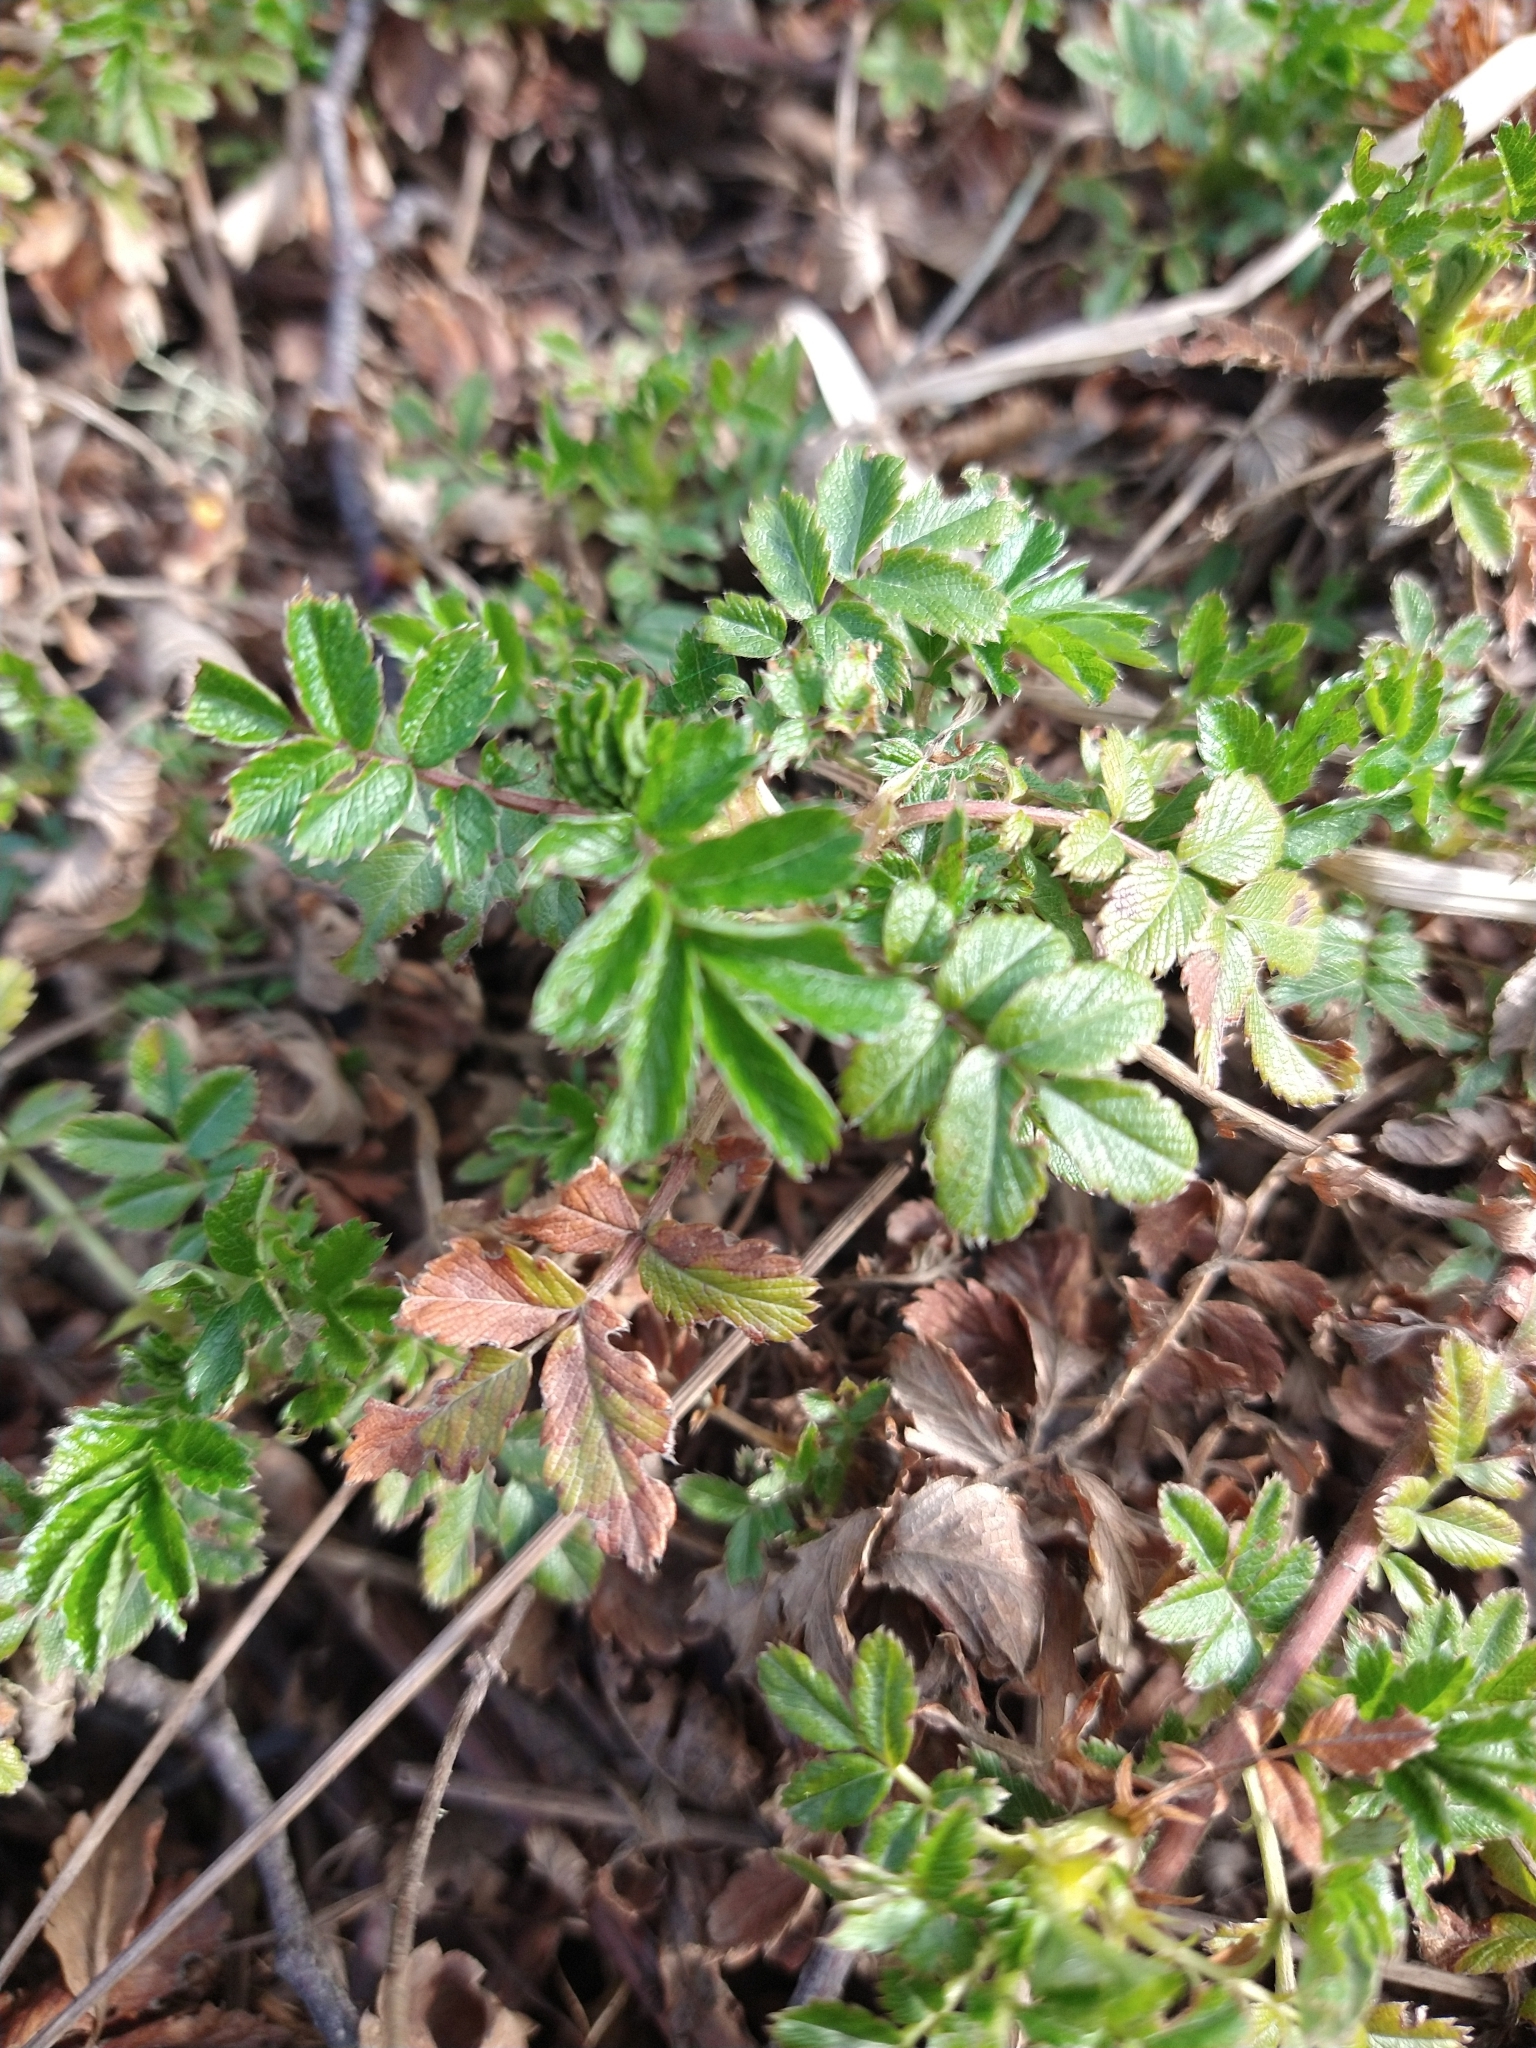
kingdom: Plantae
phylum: Tracheophyta
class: Magnoliopsida
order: Rosales
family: Rosaceae
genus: Acaena
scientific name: Acaena ovalifolia
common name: Two-spined acaena
